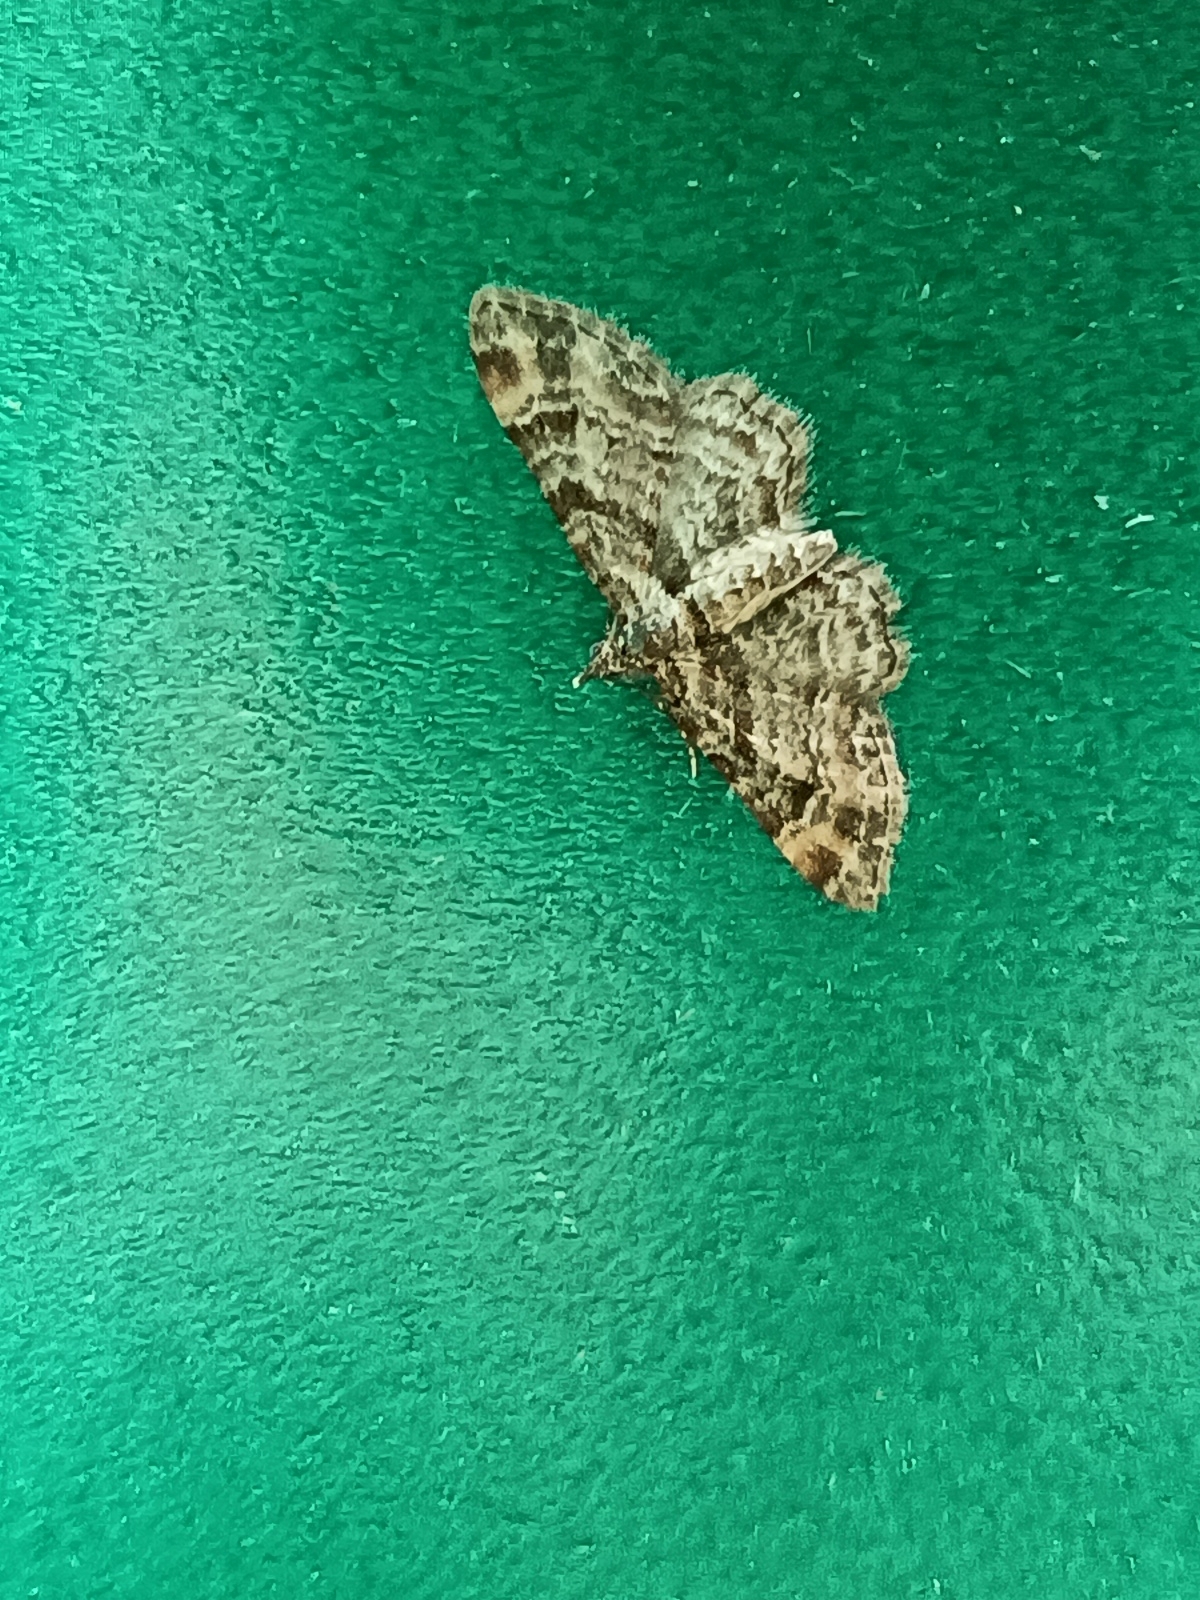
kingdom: Animalia
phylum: Arthropoda
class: Insecta
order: Lepidoptera
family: Geometridae
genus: Gymnoscelis
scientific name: Gymnoscelis rufifasciata
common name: Double-striped pug
